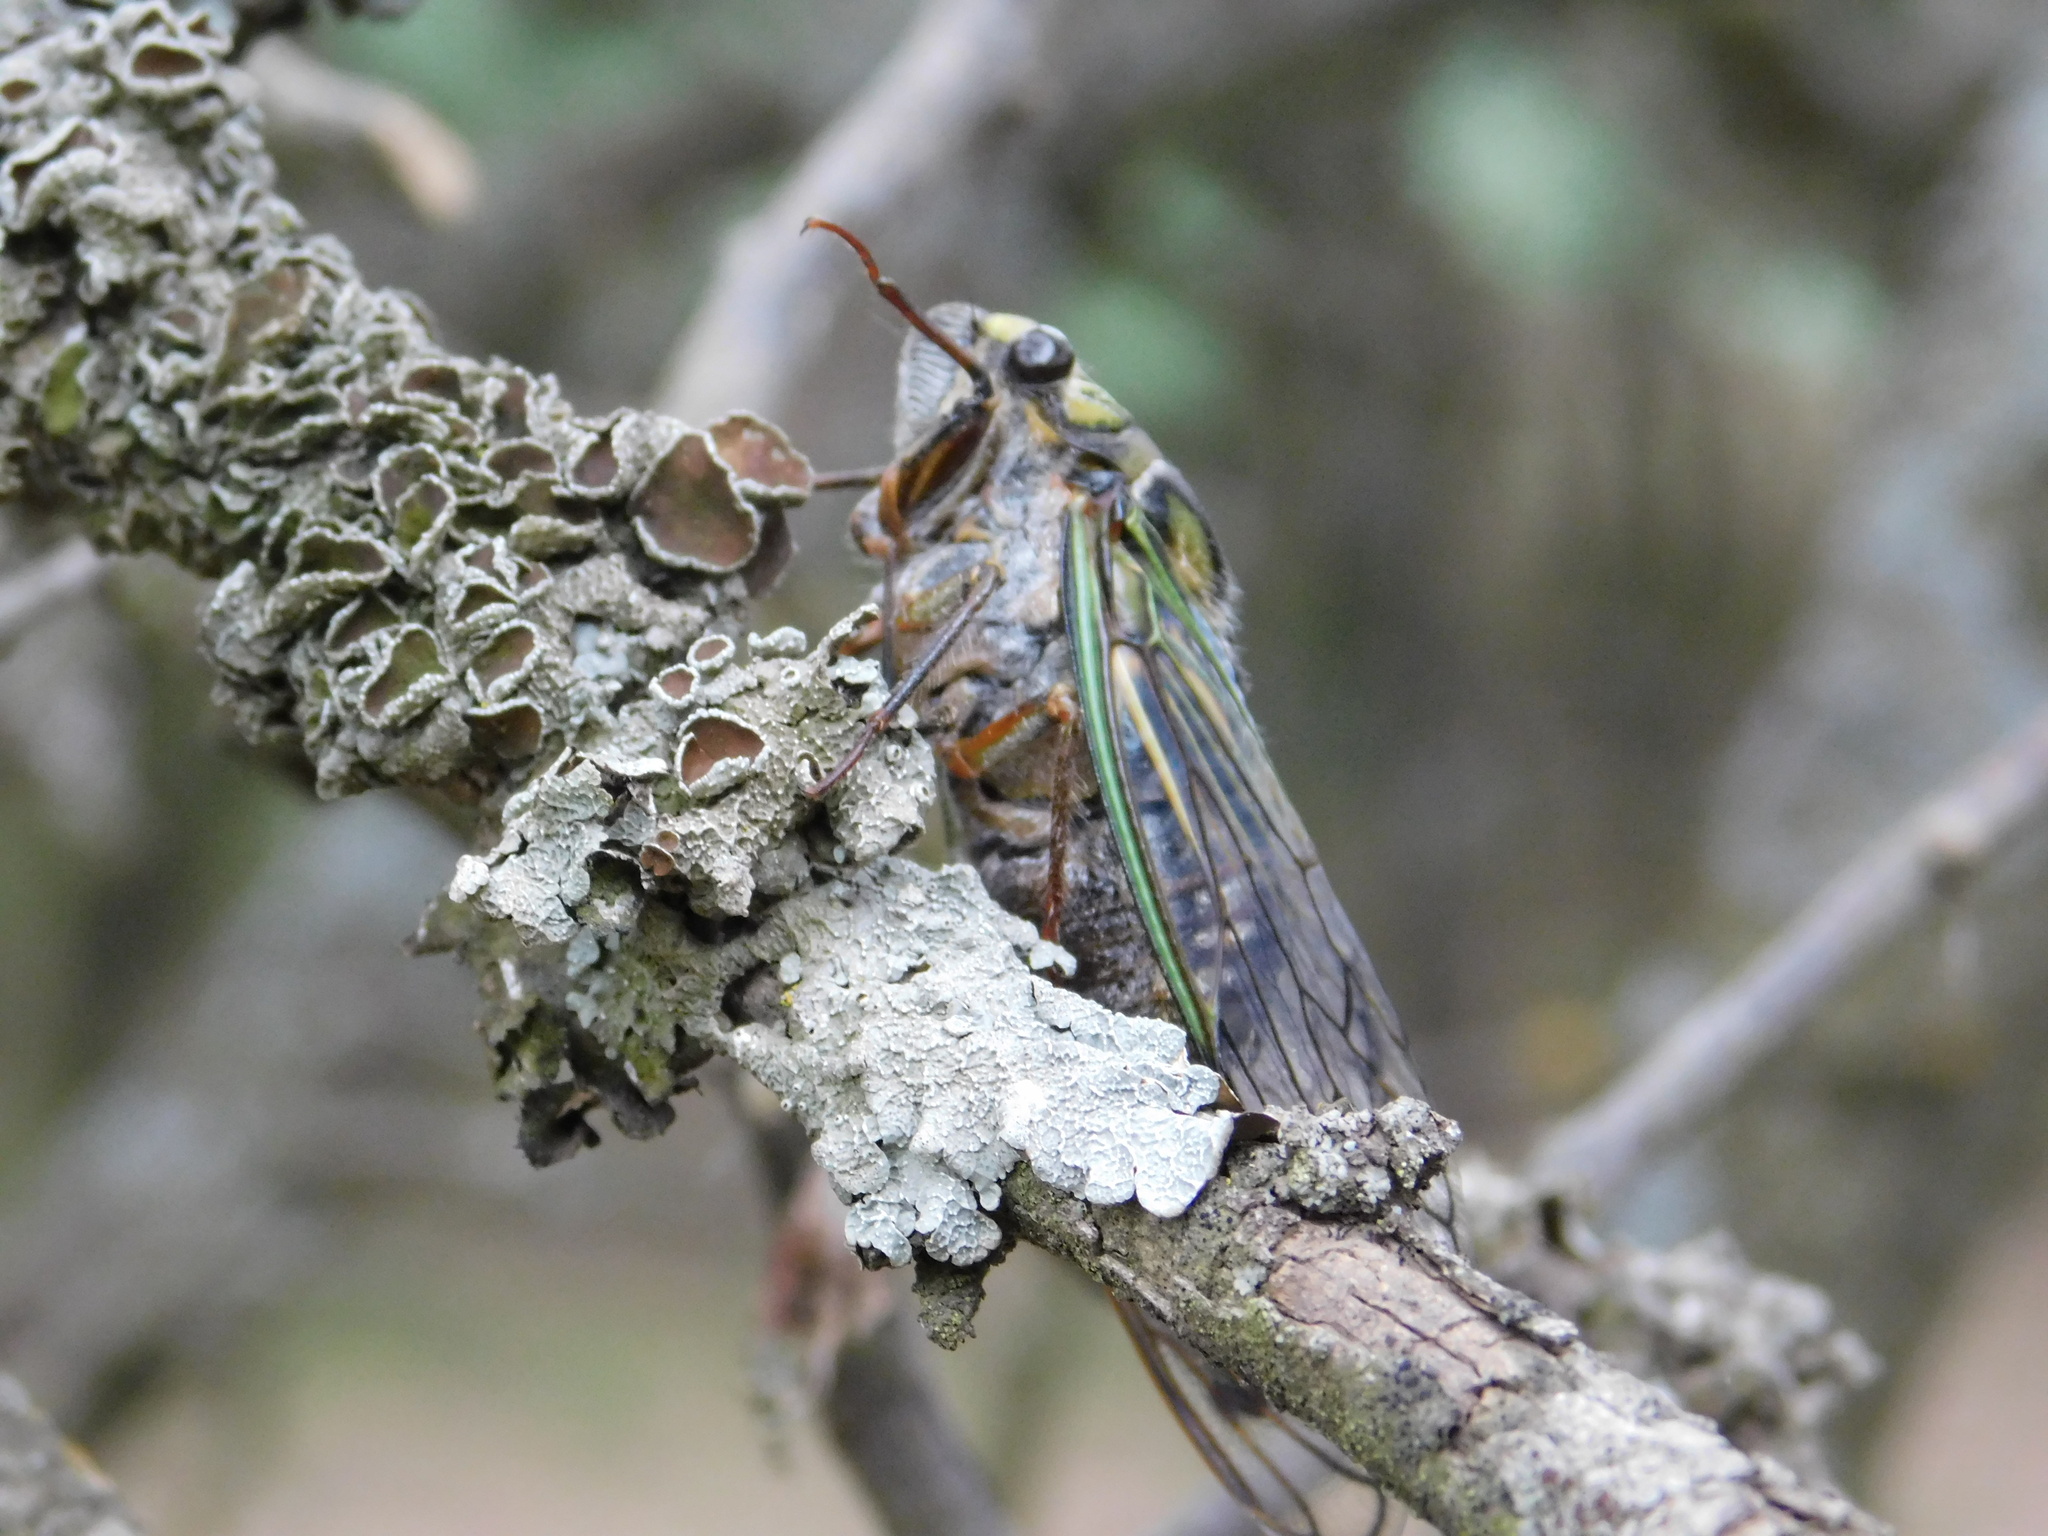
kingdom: Animalia
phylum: Arthropoda
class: Insecta
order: Hemiptera
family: Cicadidae
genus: Guyalna
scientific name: Guyalna bonaerensis
